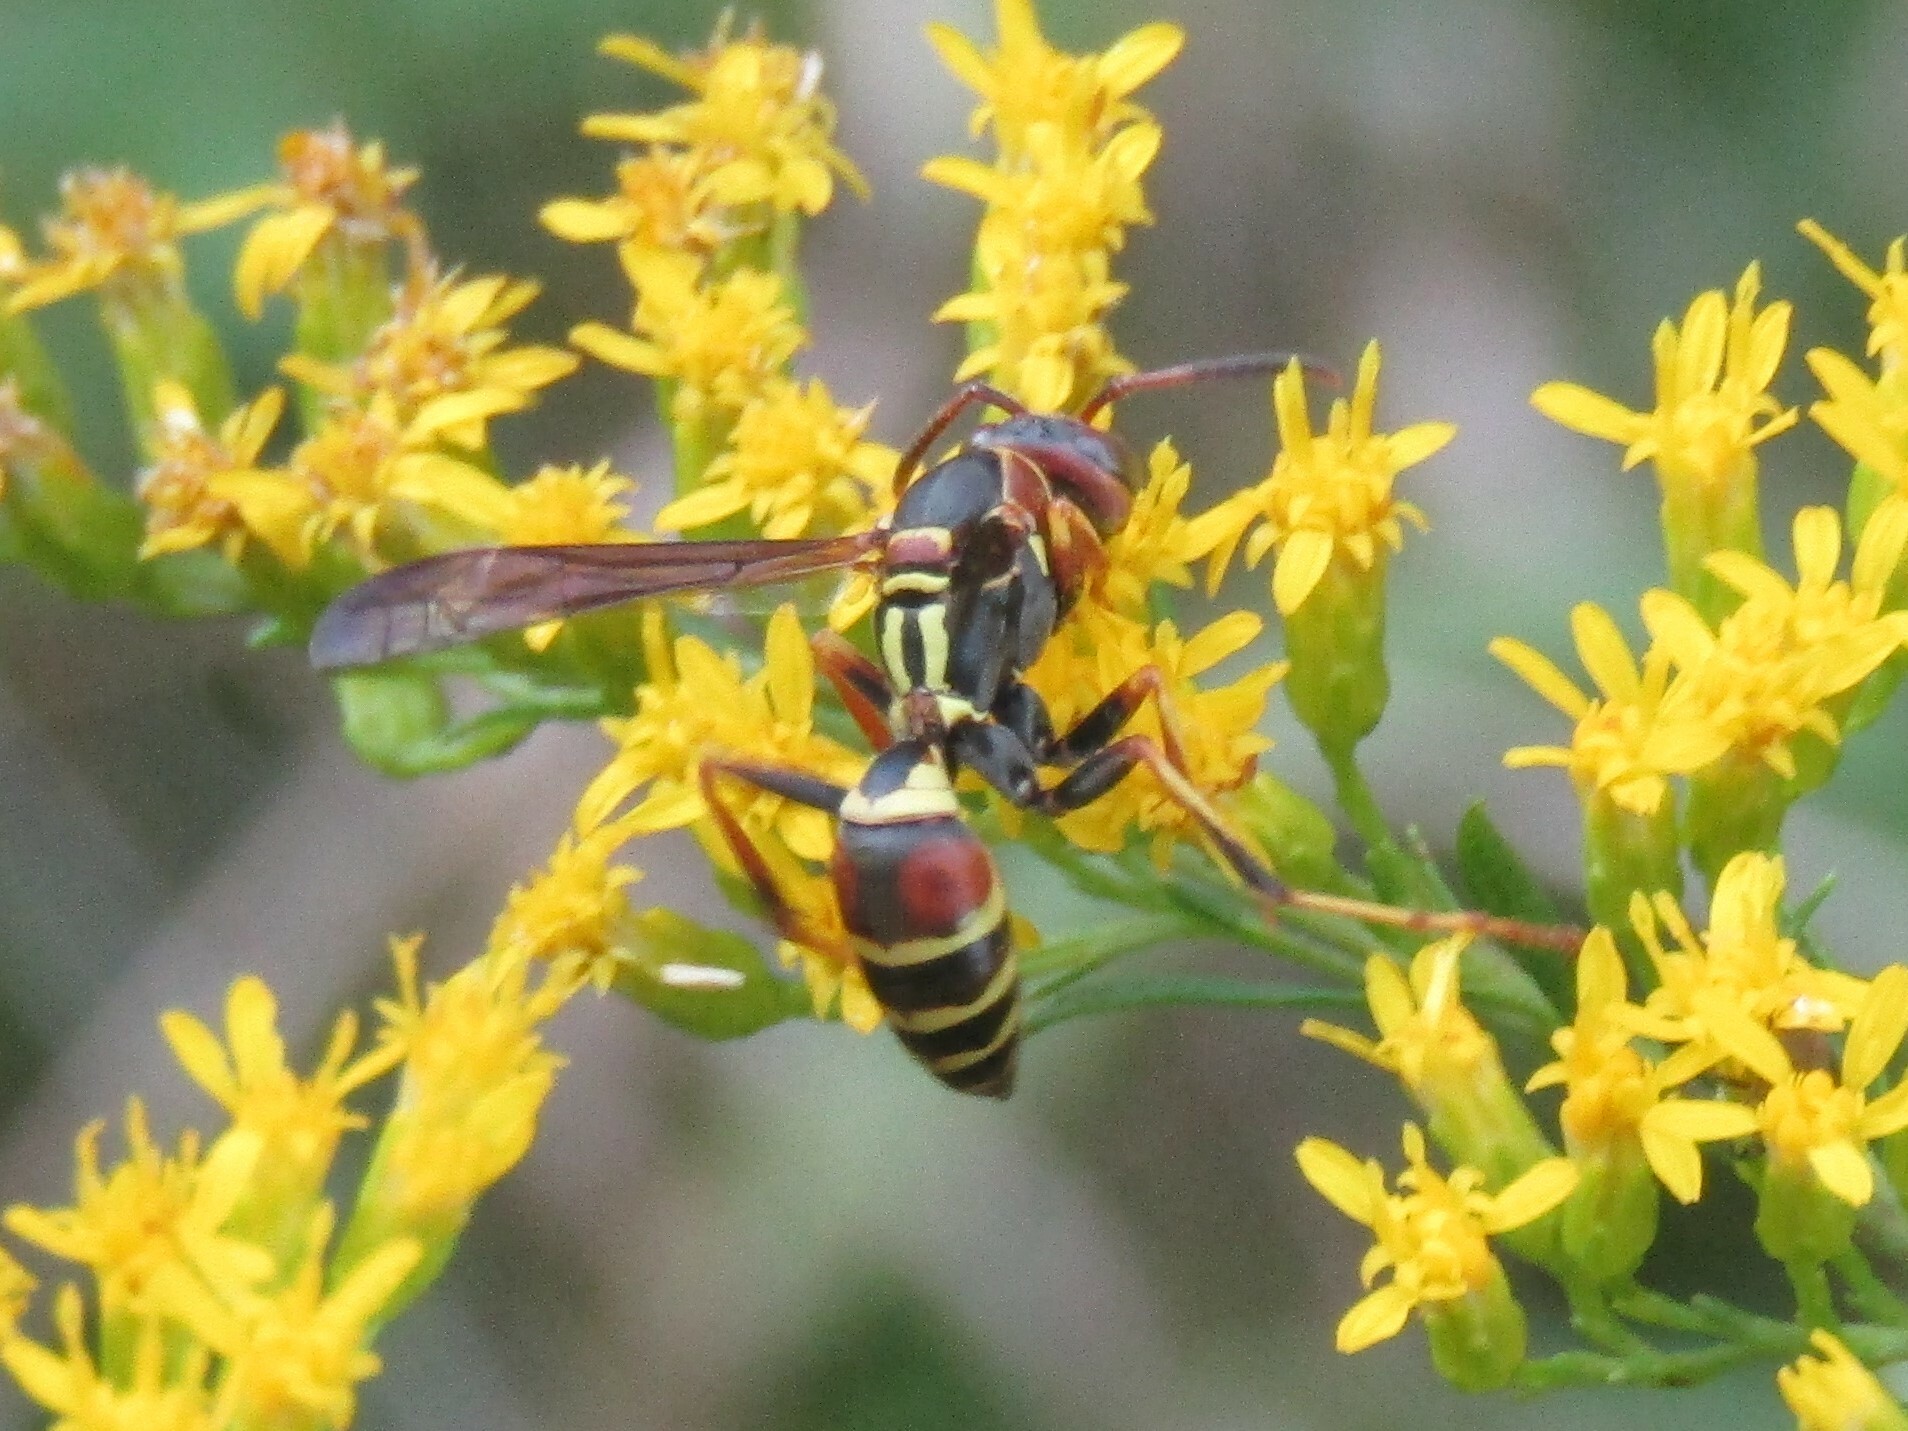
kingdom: Animalia
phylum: Arthropoda
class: Insecta
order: Hymenoptera
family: Eumenidae
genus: Polistes
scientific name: Polistes dorsalis
